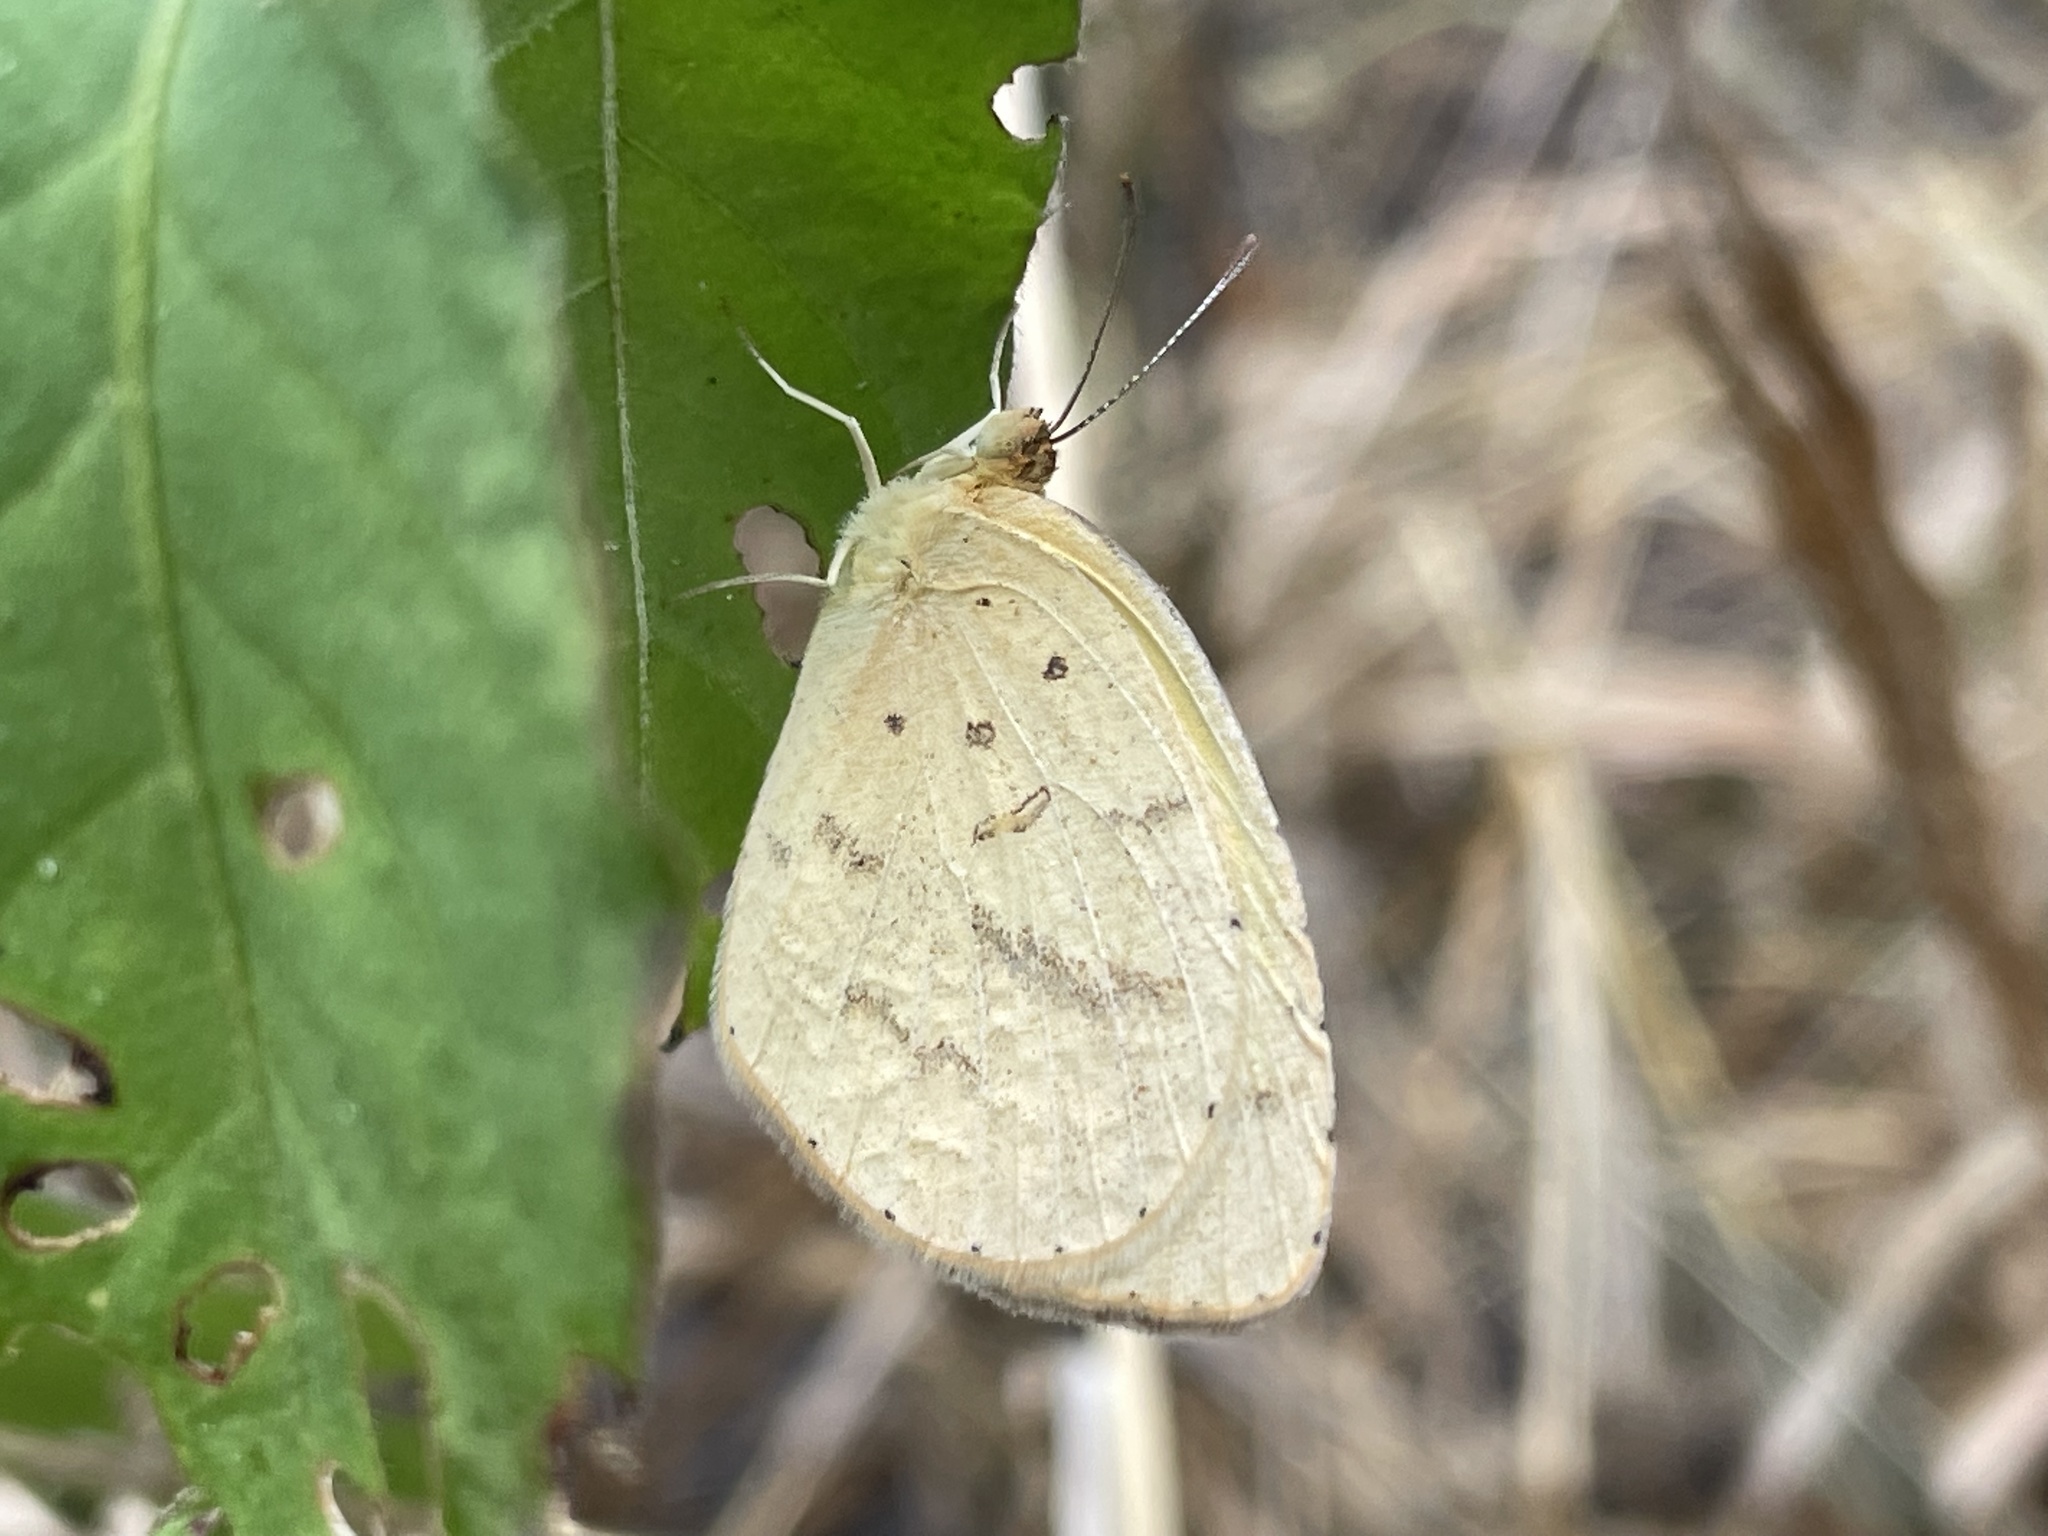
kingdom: Animalia
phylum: Arthropoda
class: Insecta
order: Lepidoptera
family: Pieridae
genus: Eurema
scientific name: Eurema brigitta
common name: Small grass yellow
